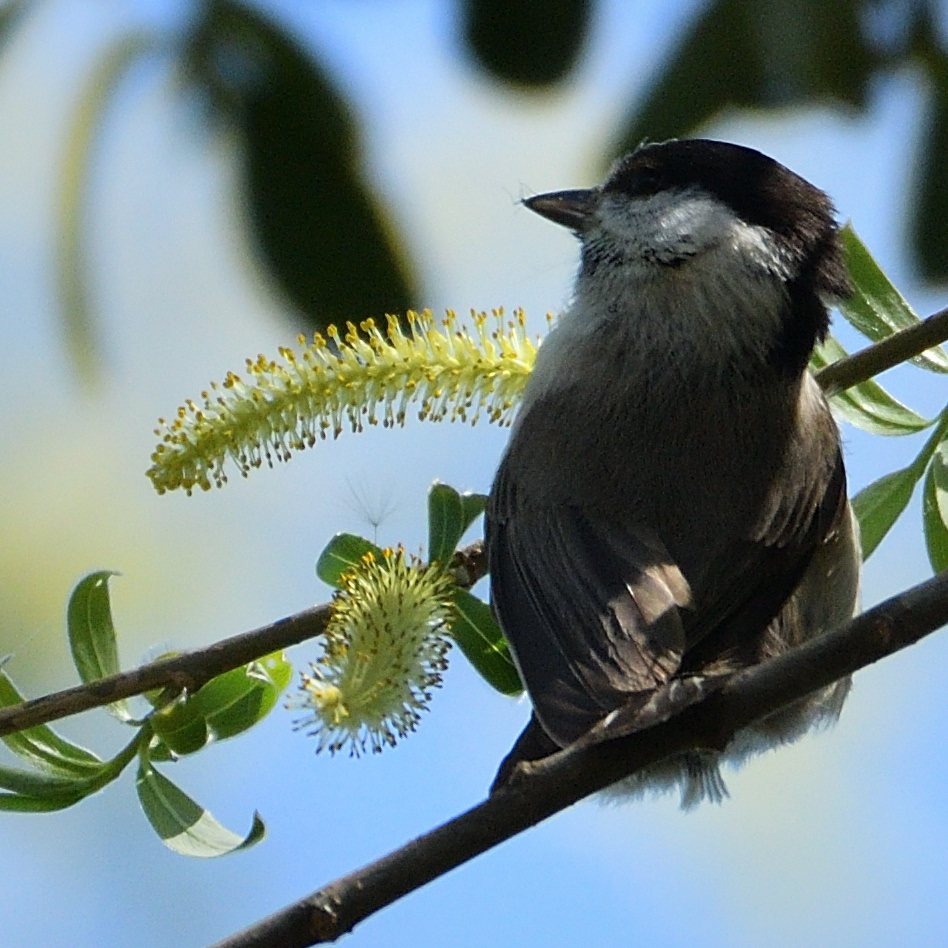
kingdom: Animalia
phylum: Chordata
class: Aves
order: Passeriformes
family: Paridae
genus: Poecile
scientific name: Poecile palustris
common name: Marsh tit
